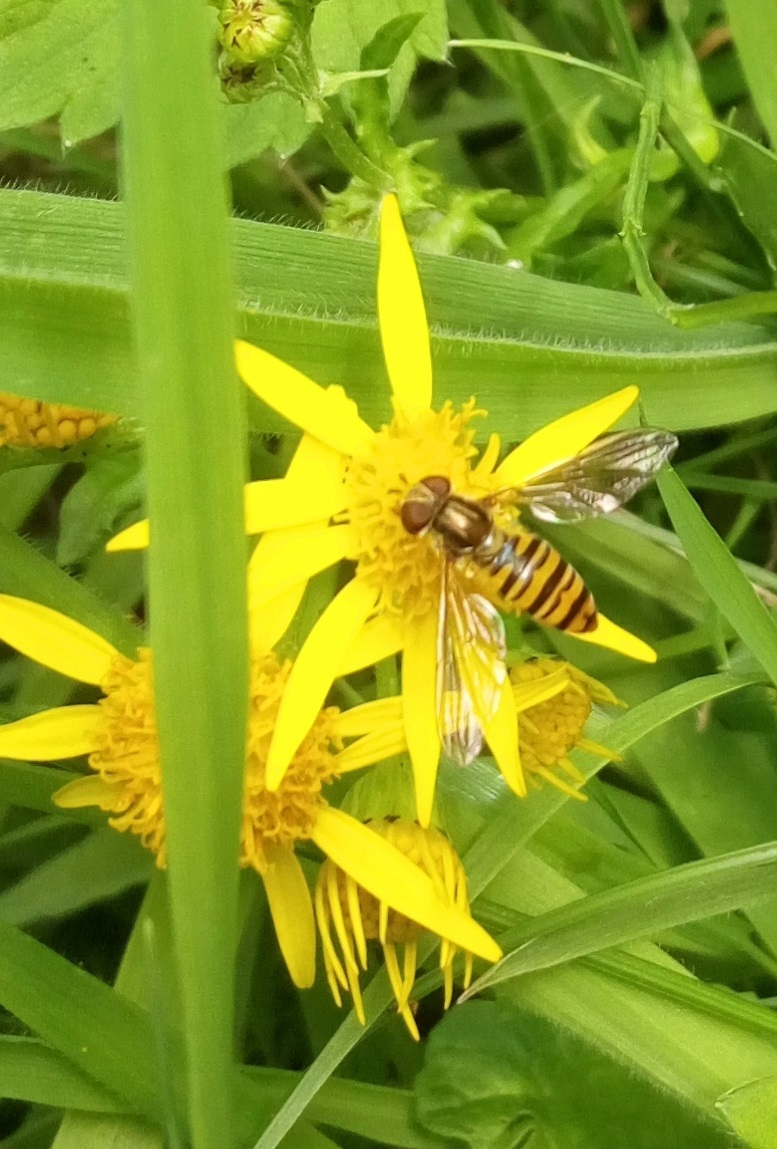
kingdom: Animalia
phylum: Arthropoda
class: Insecta
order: Diptera
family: Syrphidae
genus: Episyrphus
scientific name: Episyrphus balteatus
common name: Marmalade hoverfly
